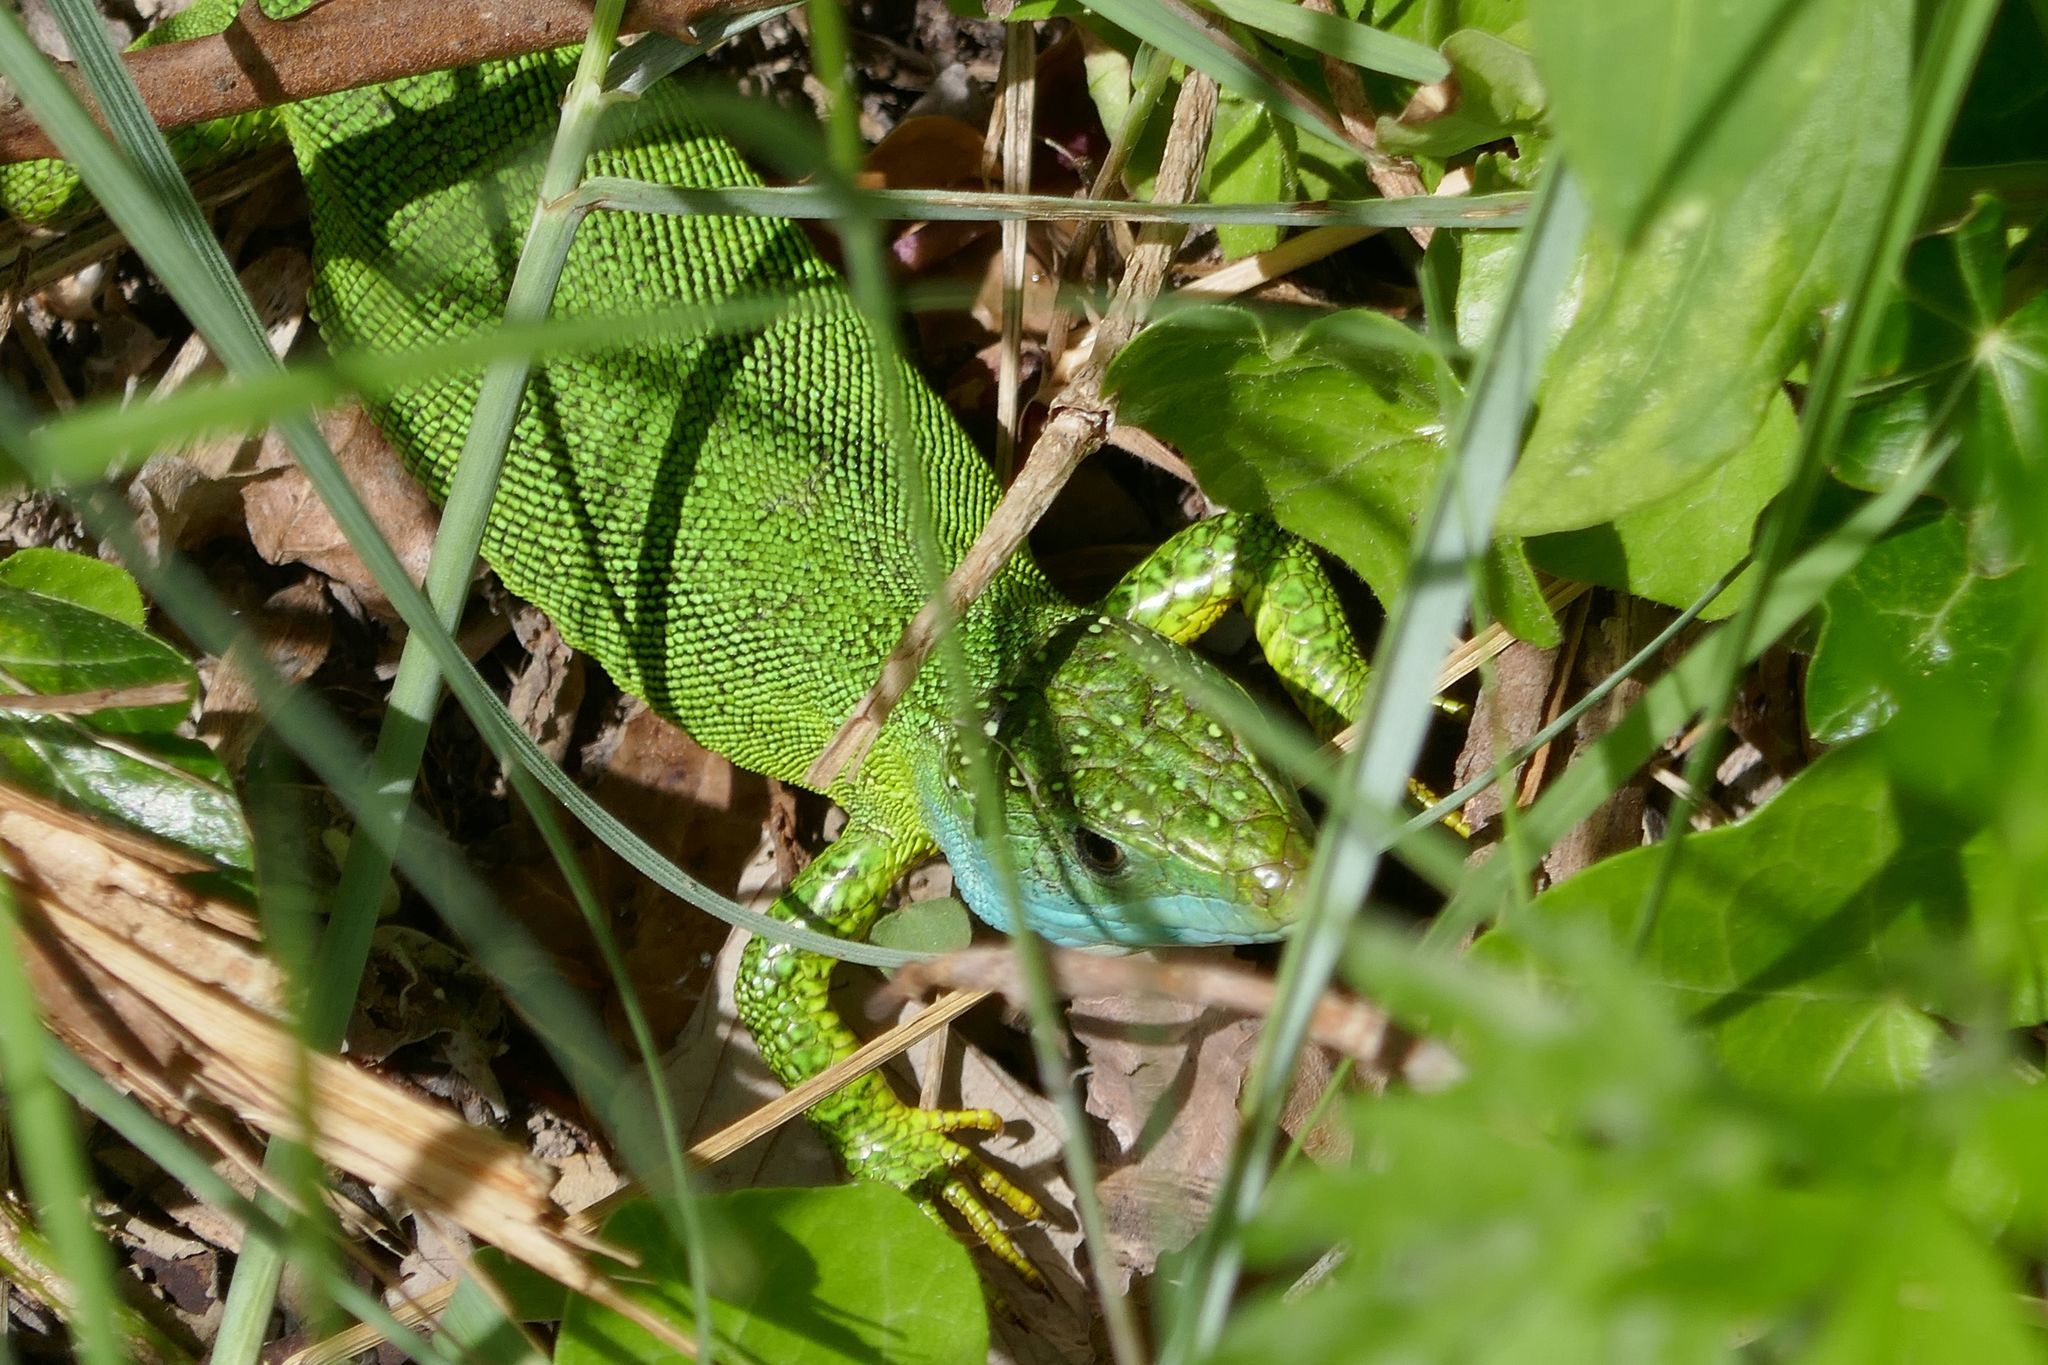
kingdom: Animalia
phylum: Chordata
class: Squamata
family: Lacertidae
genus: Lacerta
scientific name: Lacerta bilineata
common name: Western green lizard
